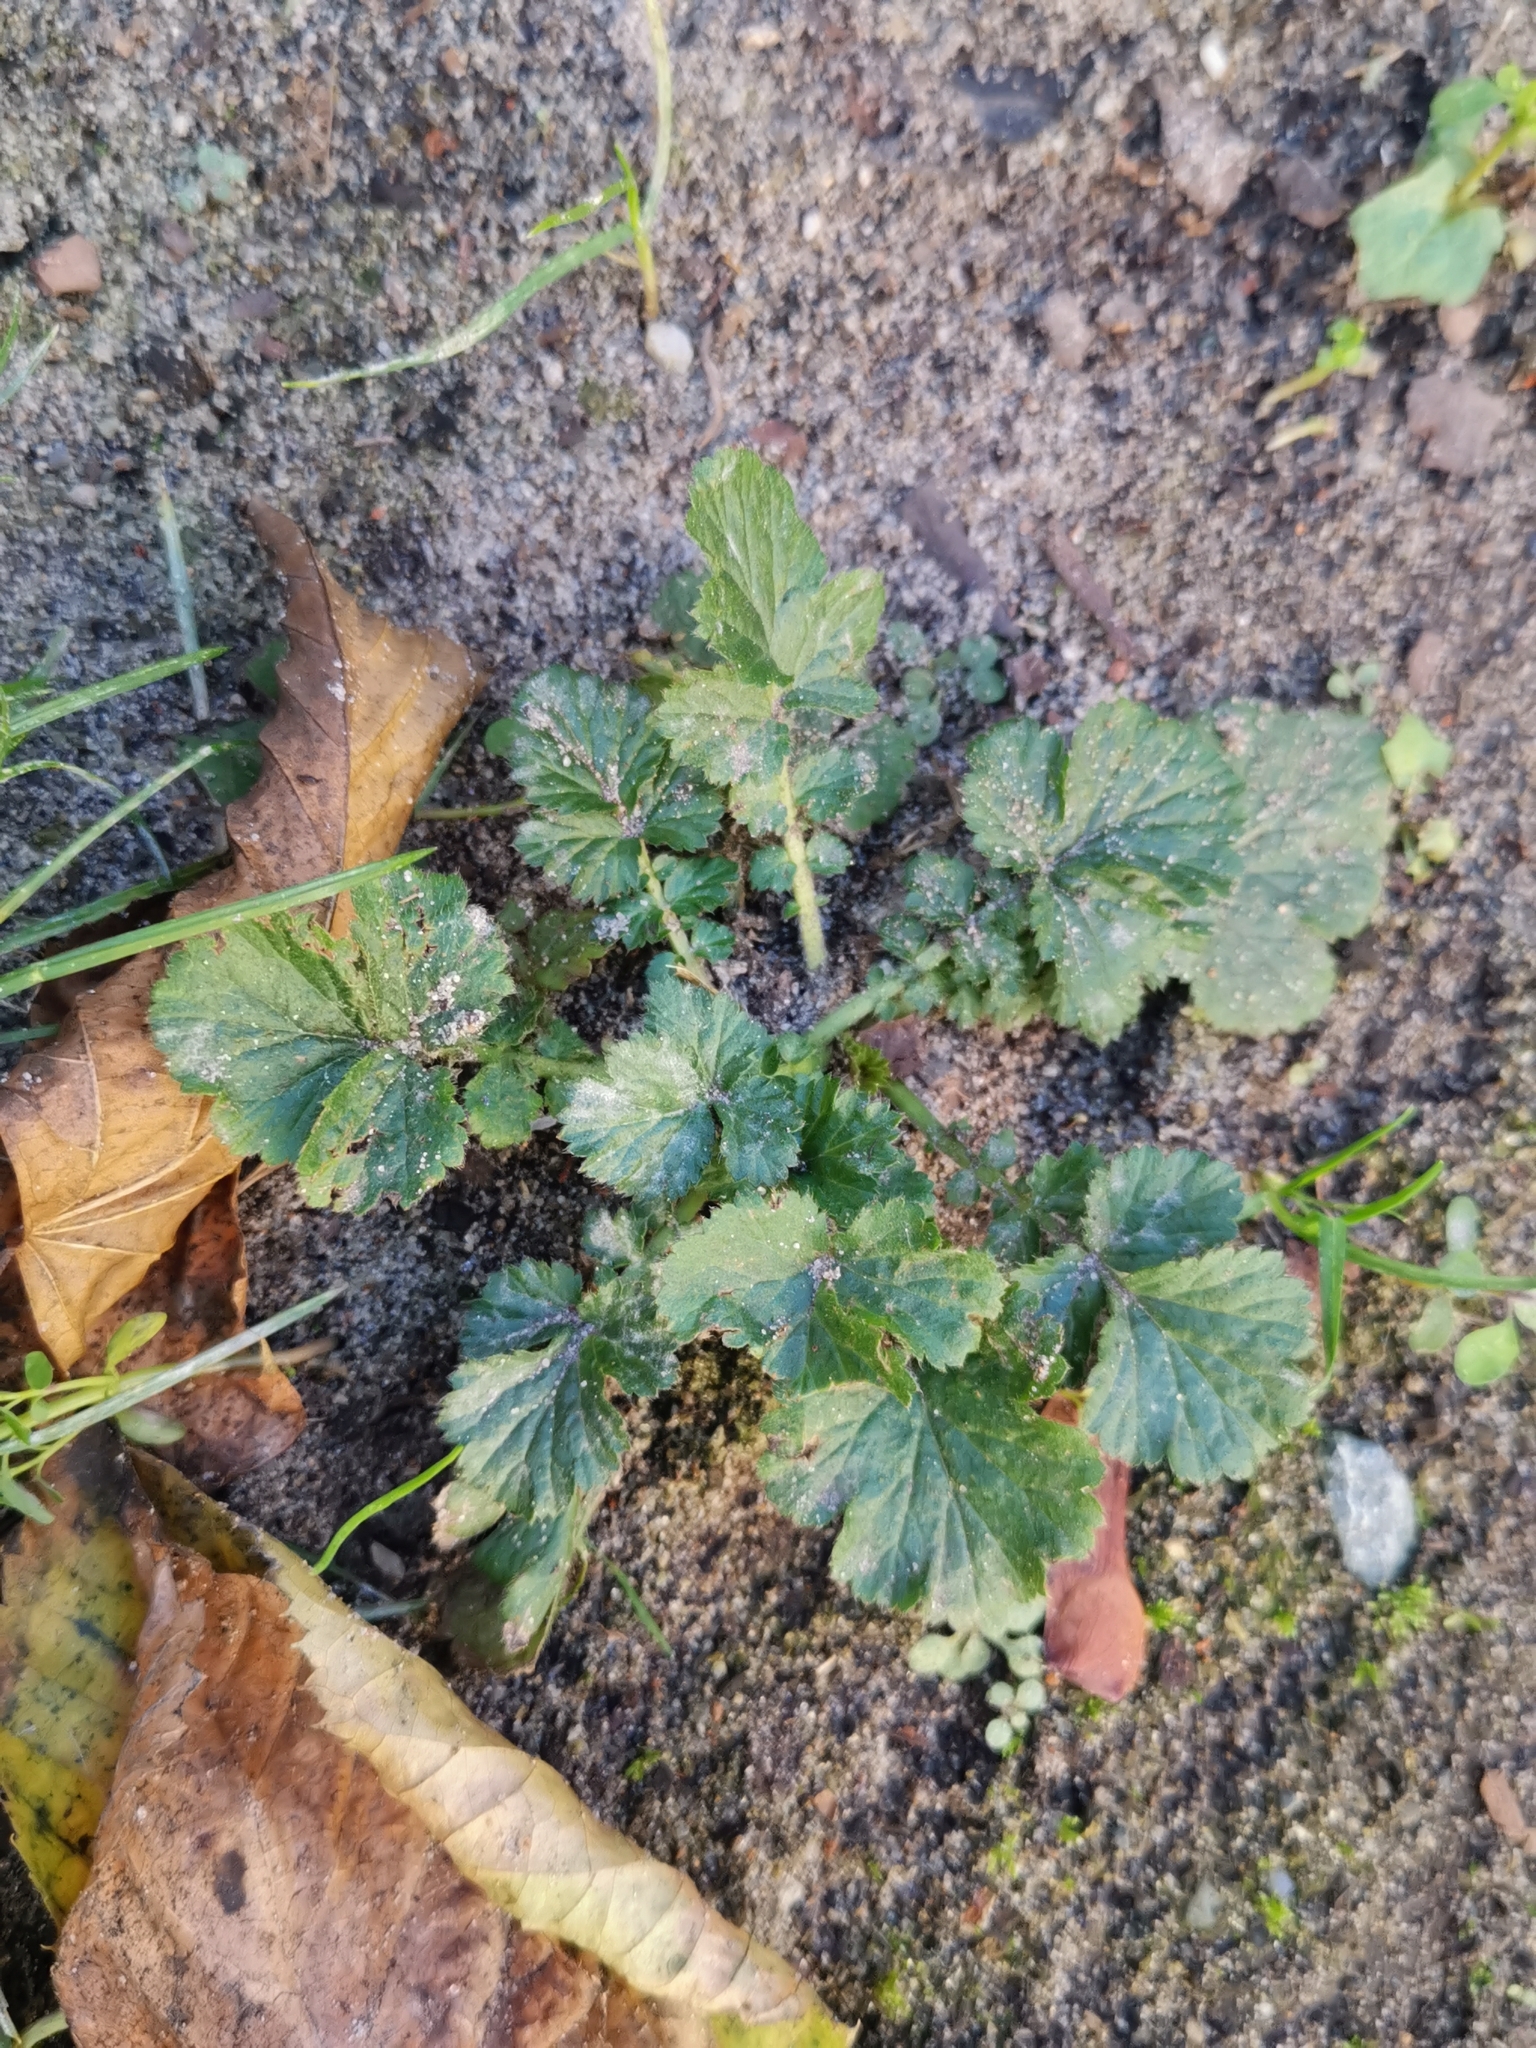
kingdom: Plantae
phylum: Tracheophyta
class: Magnoliopsida
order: Rosales
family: Rosaceae
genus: Geum
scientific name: Geum urbanum
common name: Wood avens
